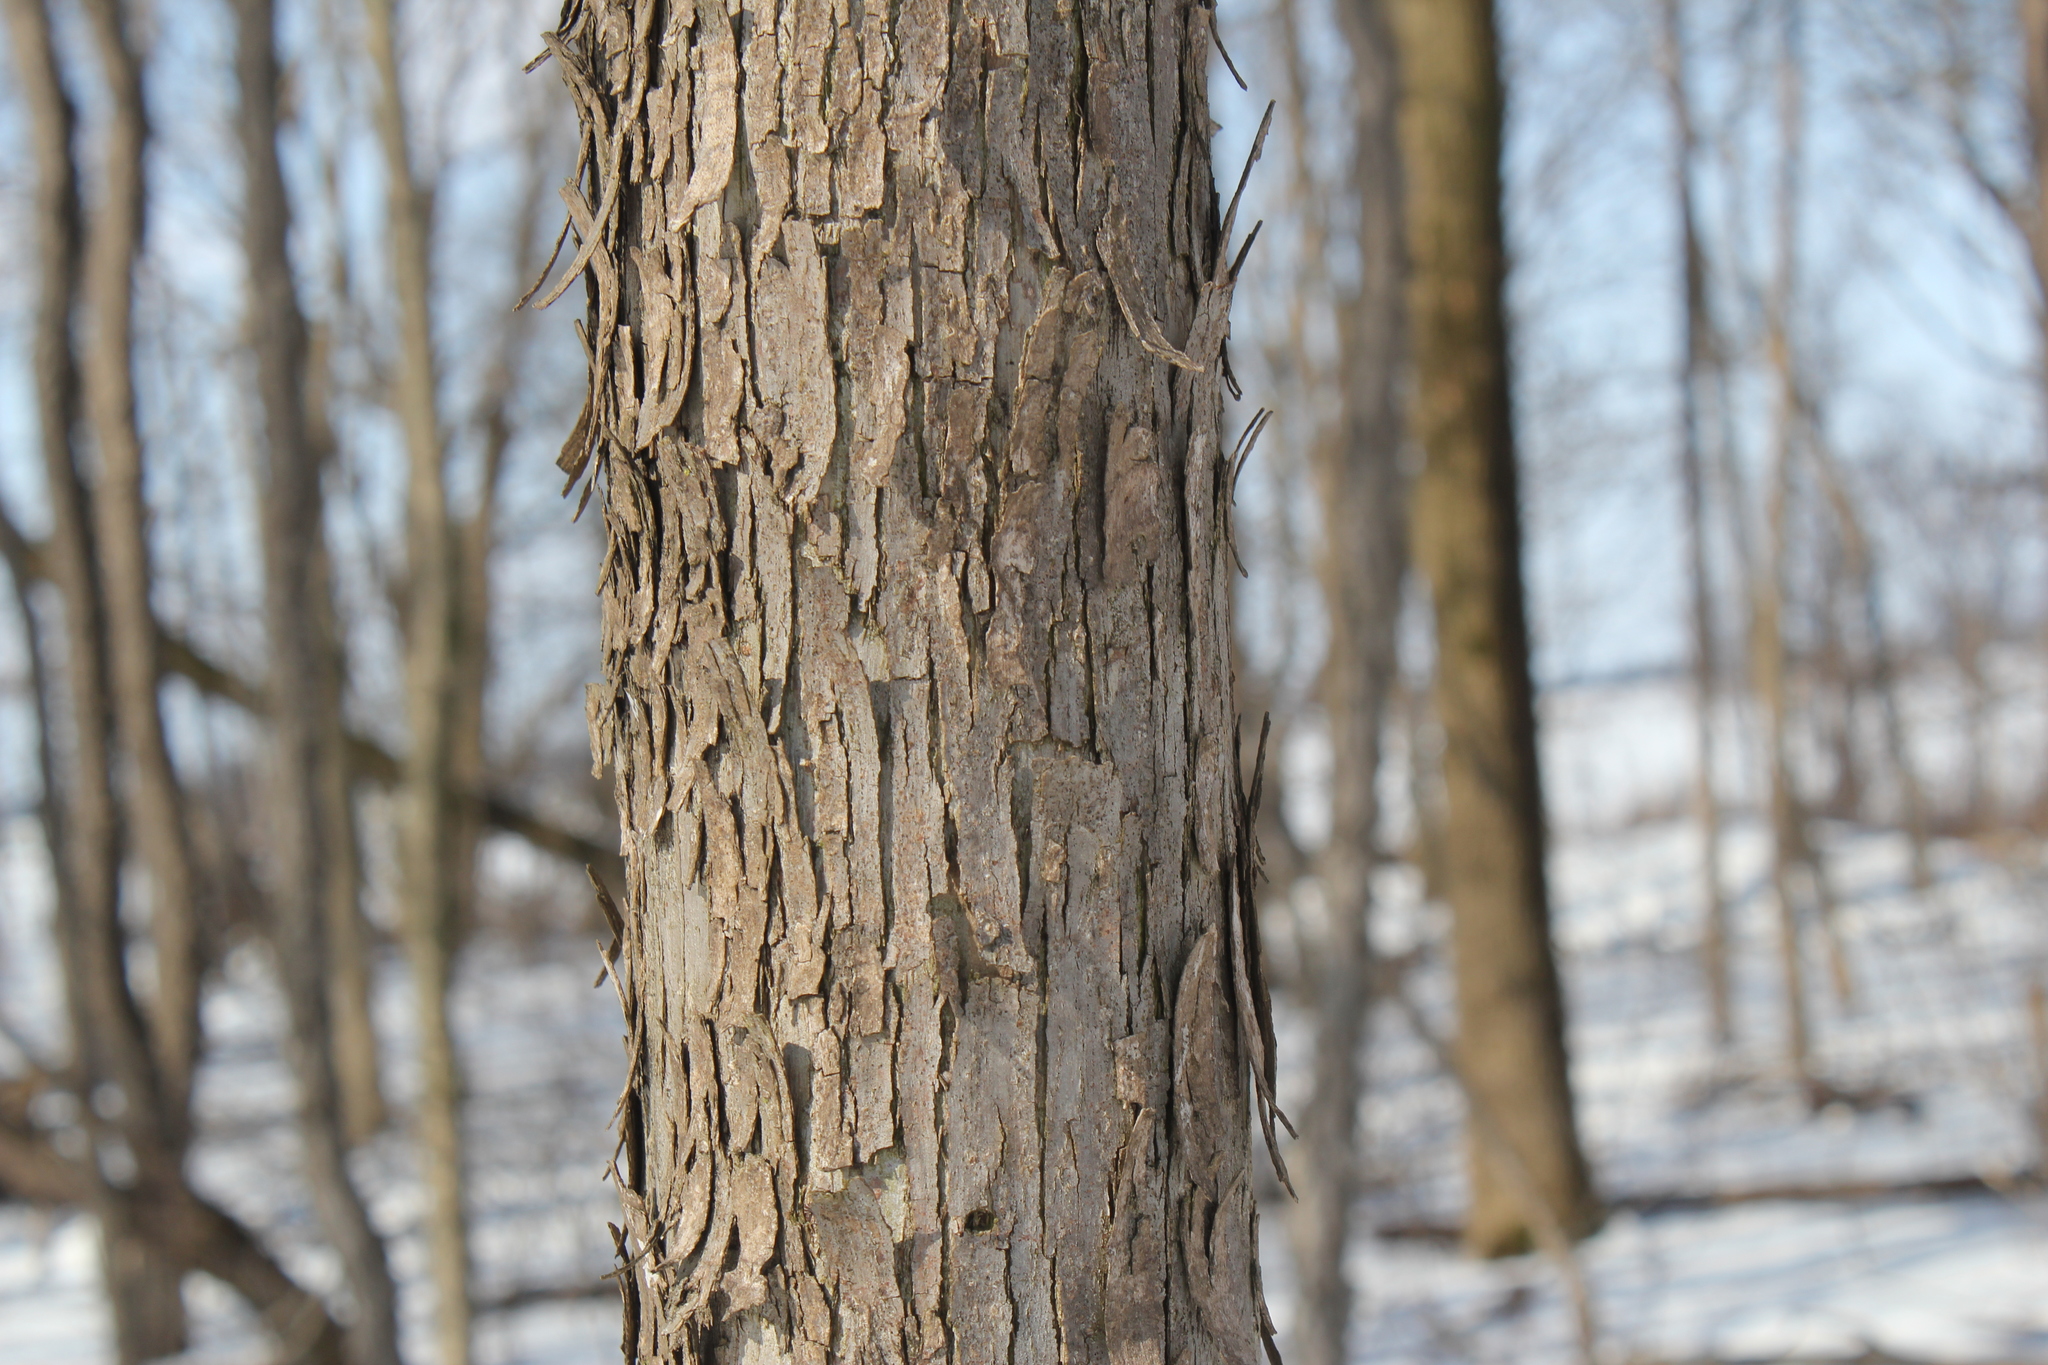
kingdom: Plantae
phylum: Tracheophyta
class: Magnoliopsida
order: Fagales
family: Betulaceae
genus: Ostrya
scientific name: Ostrya virginiana
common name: Ironwood
